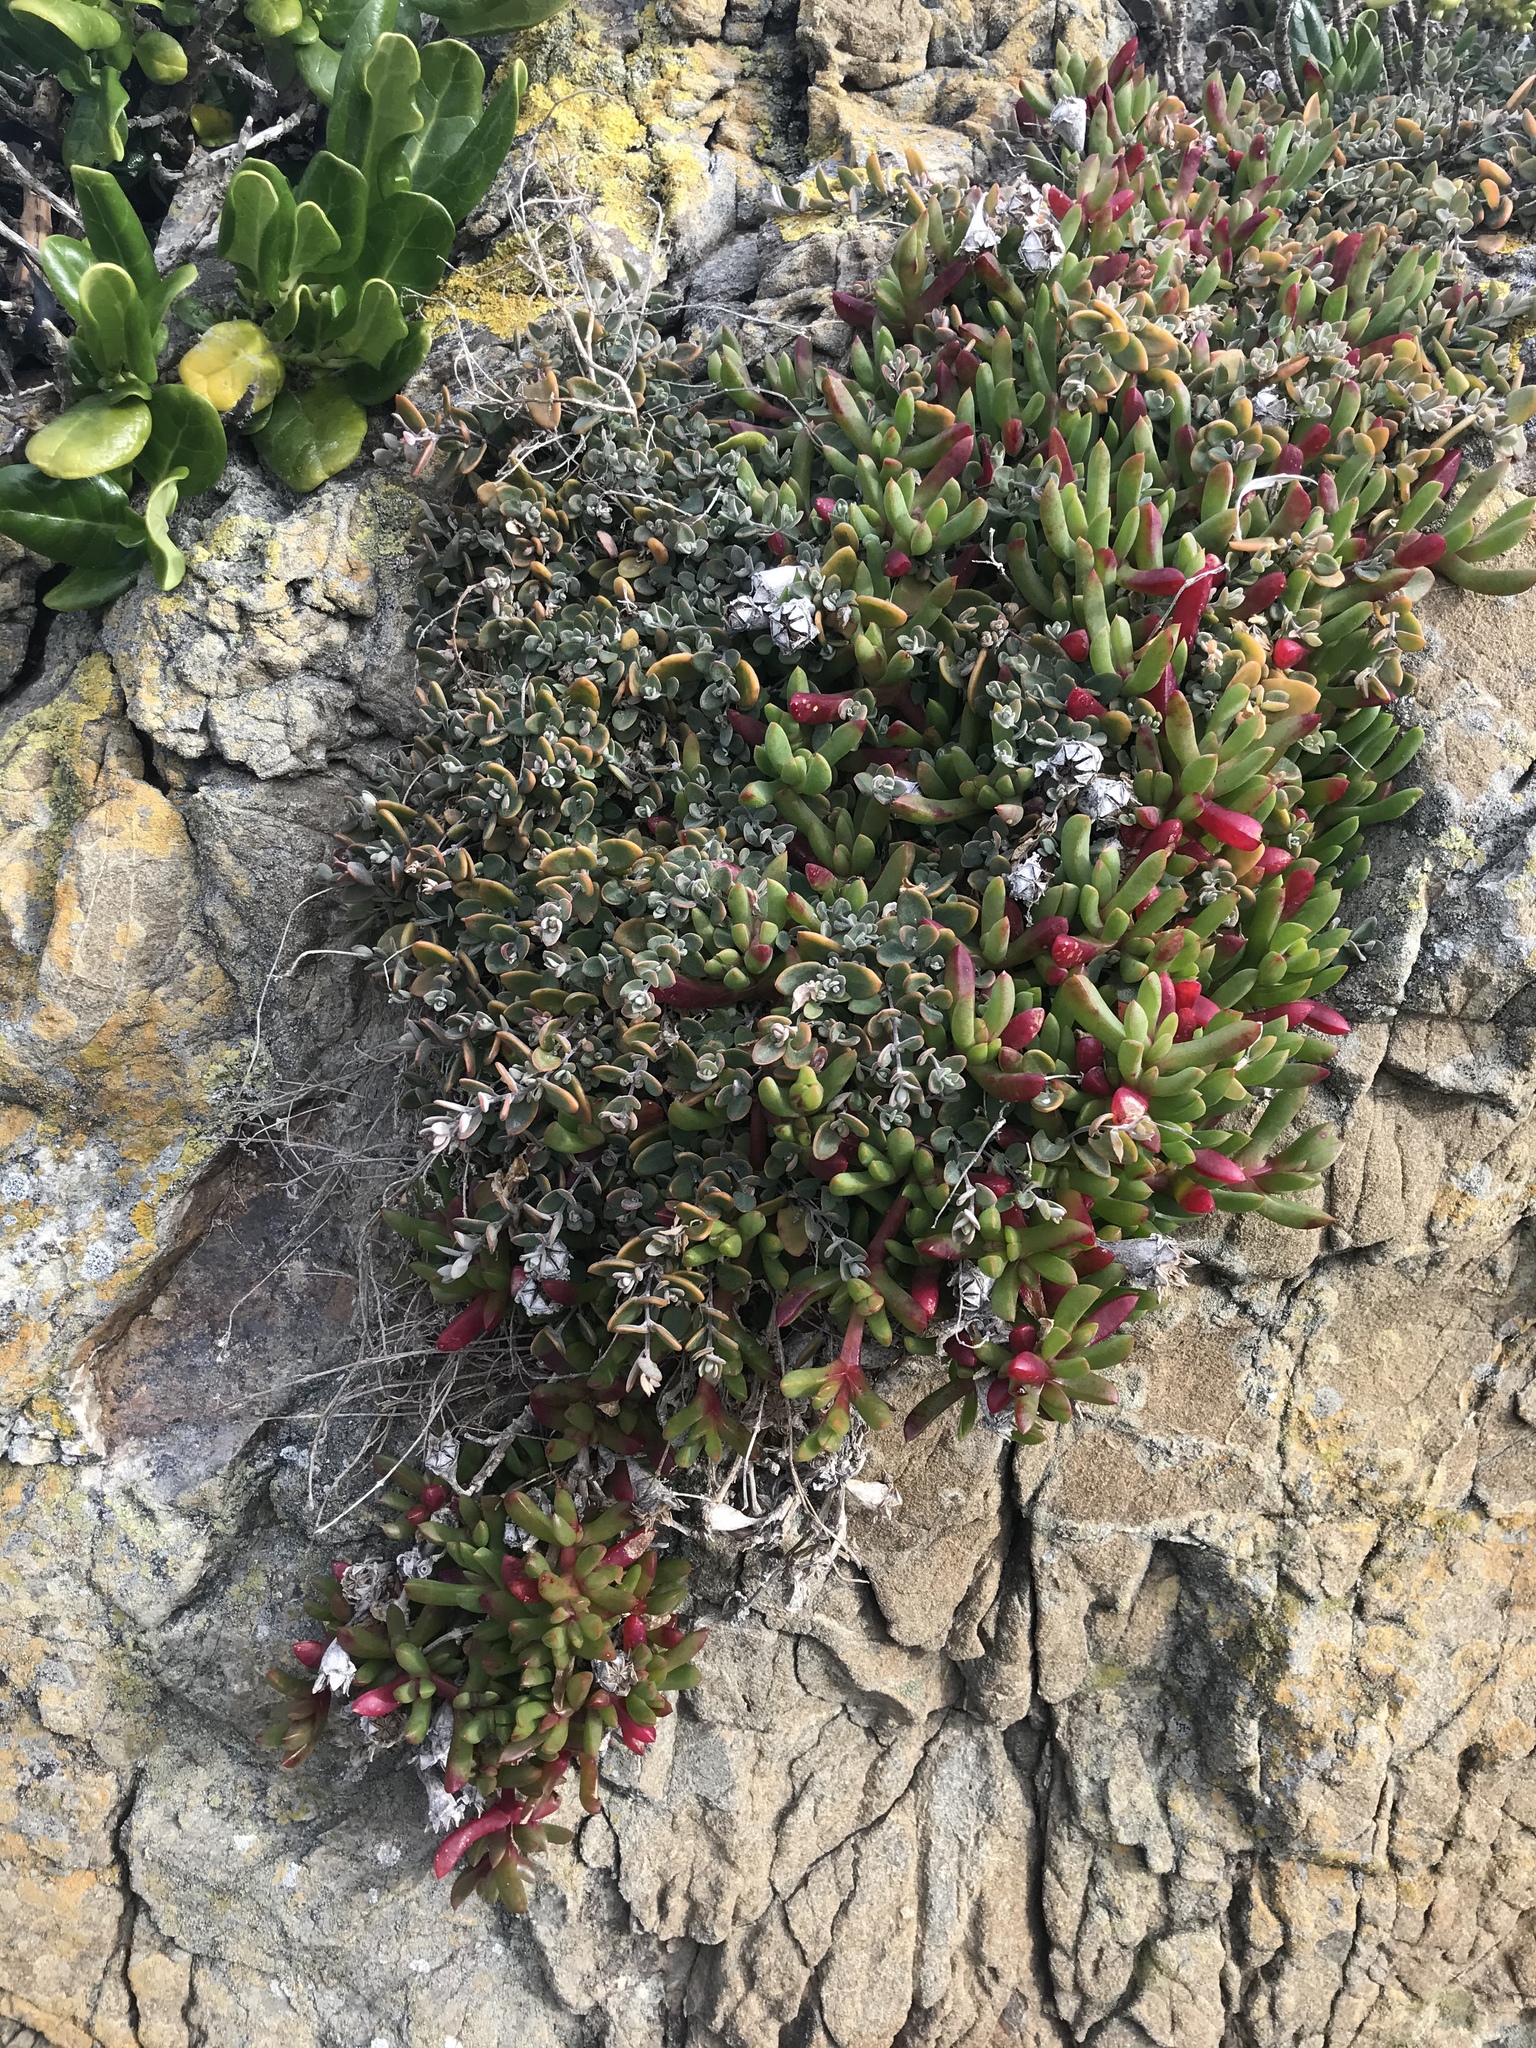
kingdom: Plantae
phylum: Tracheophyta
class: Magnoliopsida
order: Caryophyllales
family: Amaranthaceae
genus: Chenopodium
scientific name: Chenopodium triandrum
